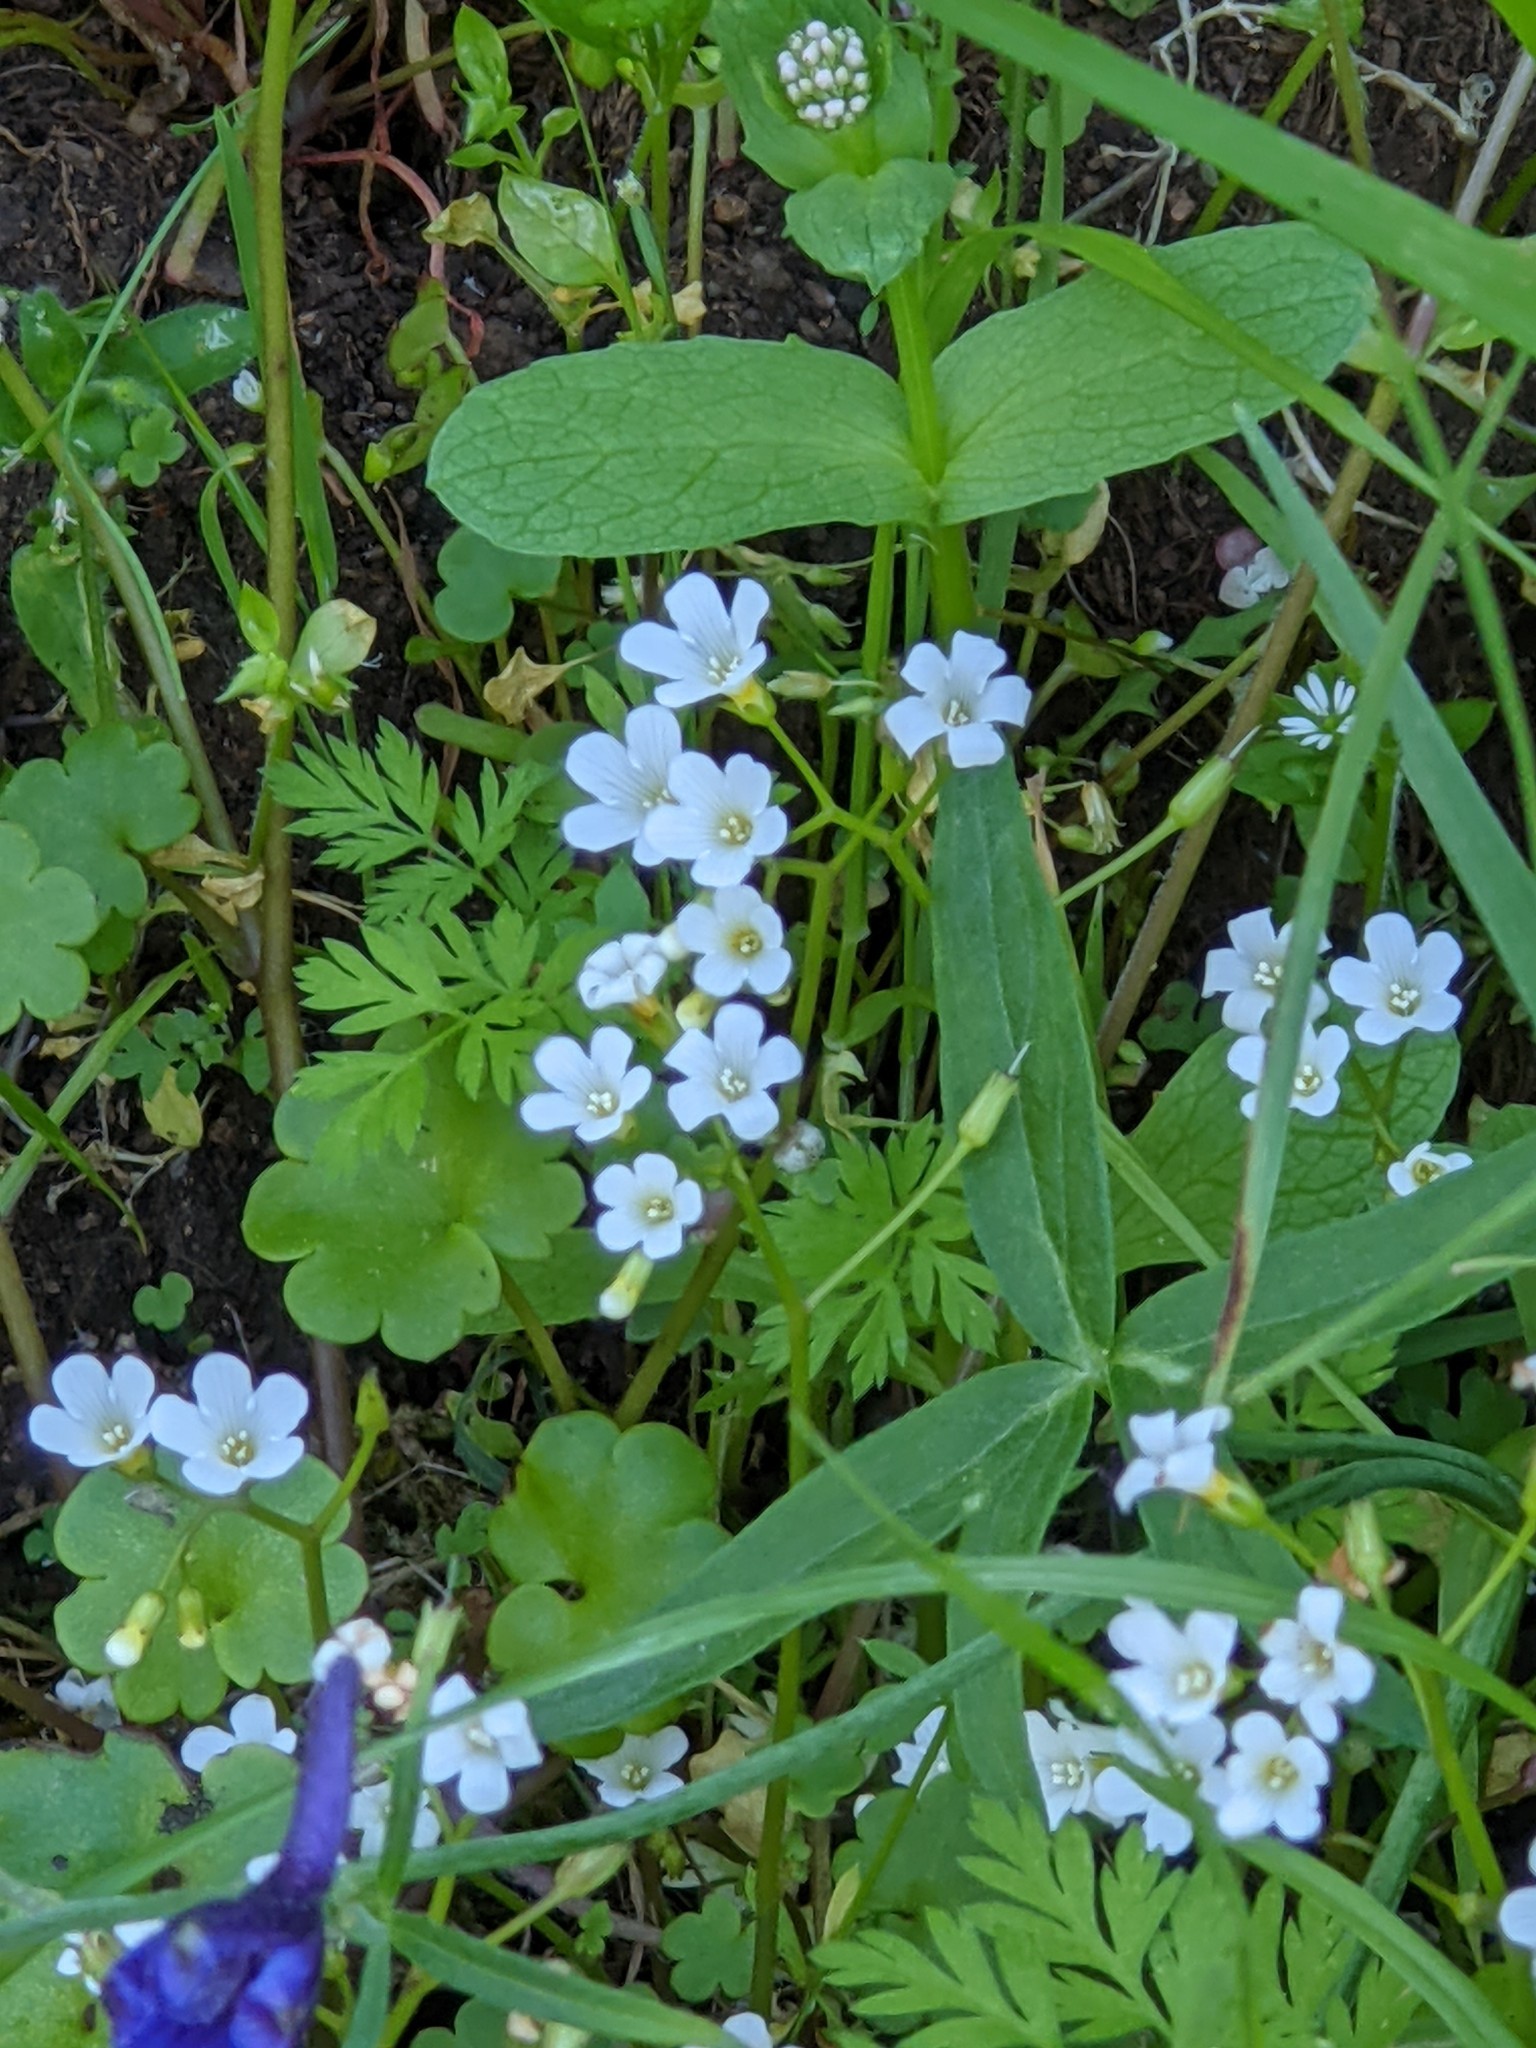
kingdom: Plantae
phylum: Tracheophyta
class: Magnoliopsida
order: Boraginales
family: Hydrophyllaceae
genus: Romanzoffia
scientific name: Romanzoffia californica
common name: California mistmaiden
